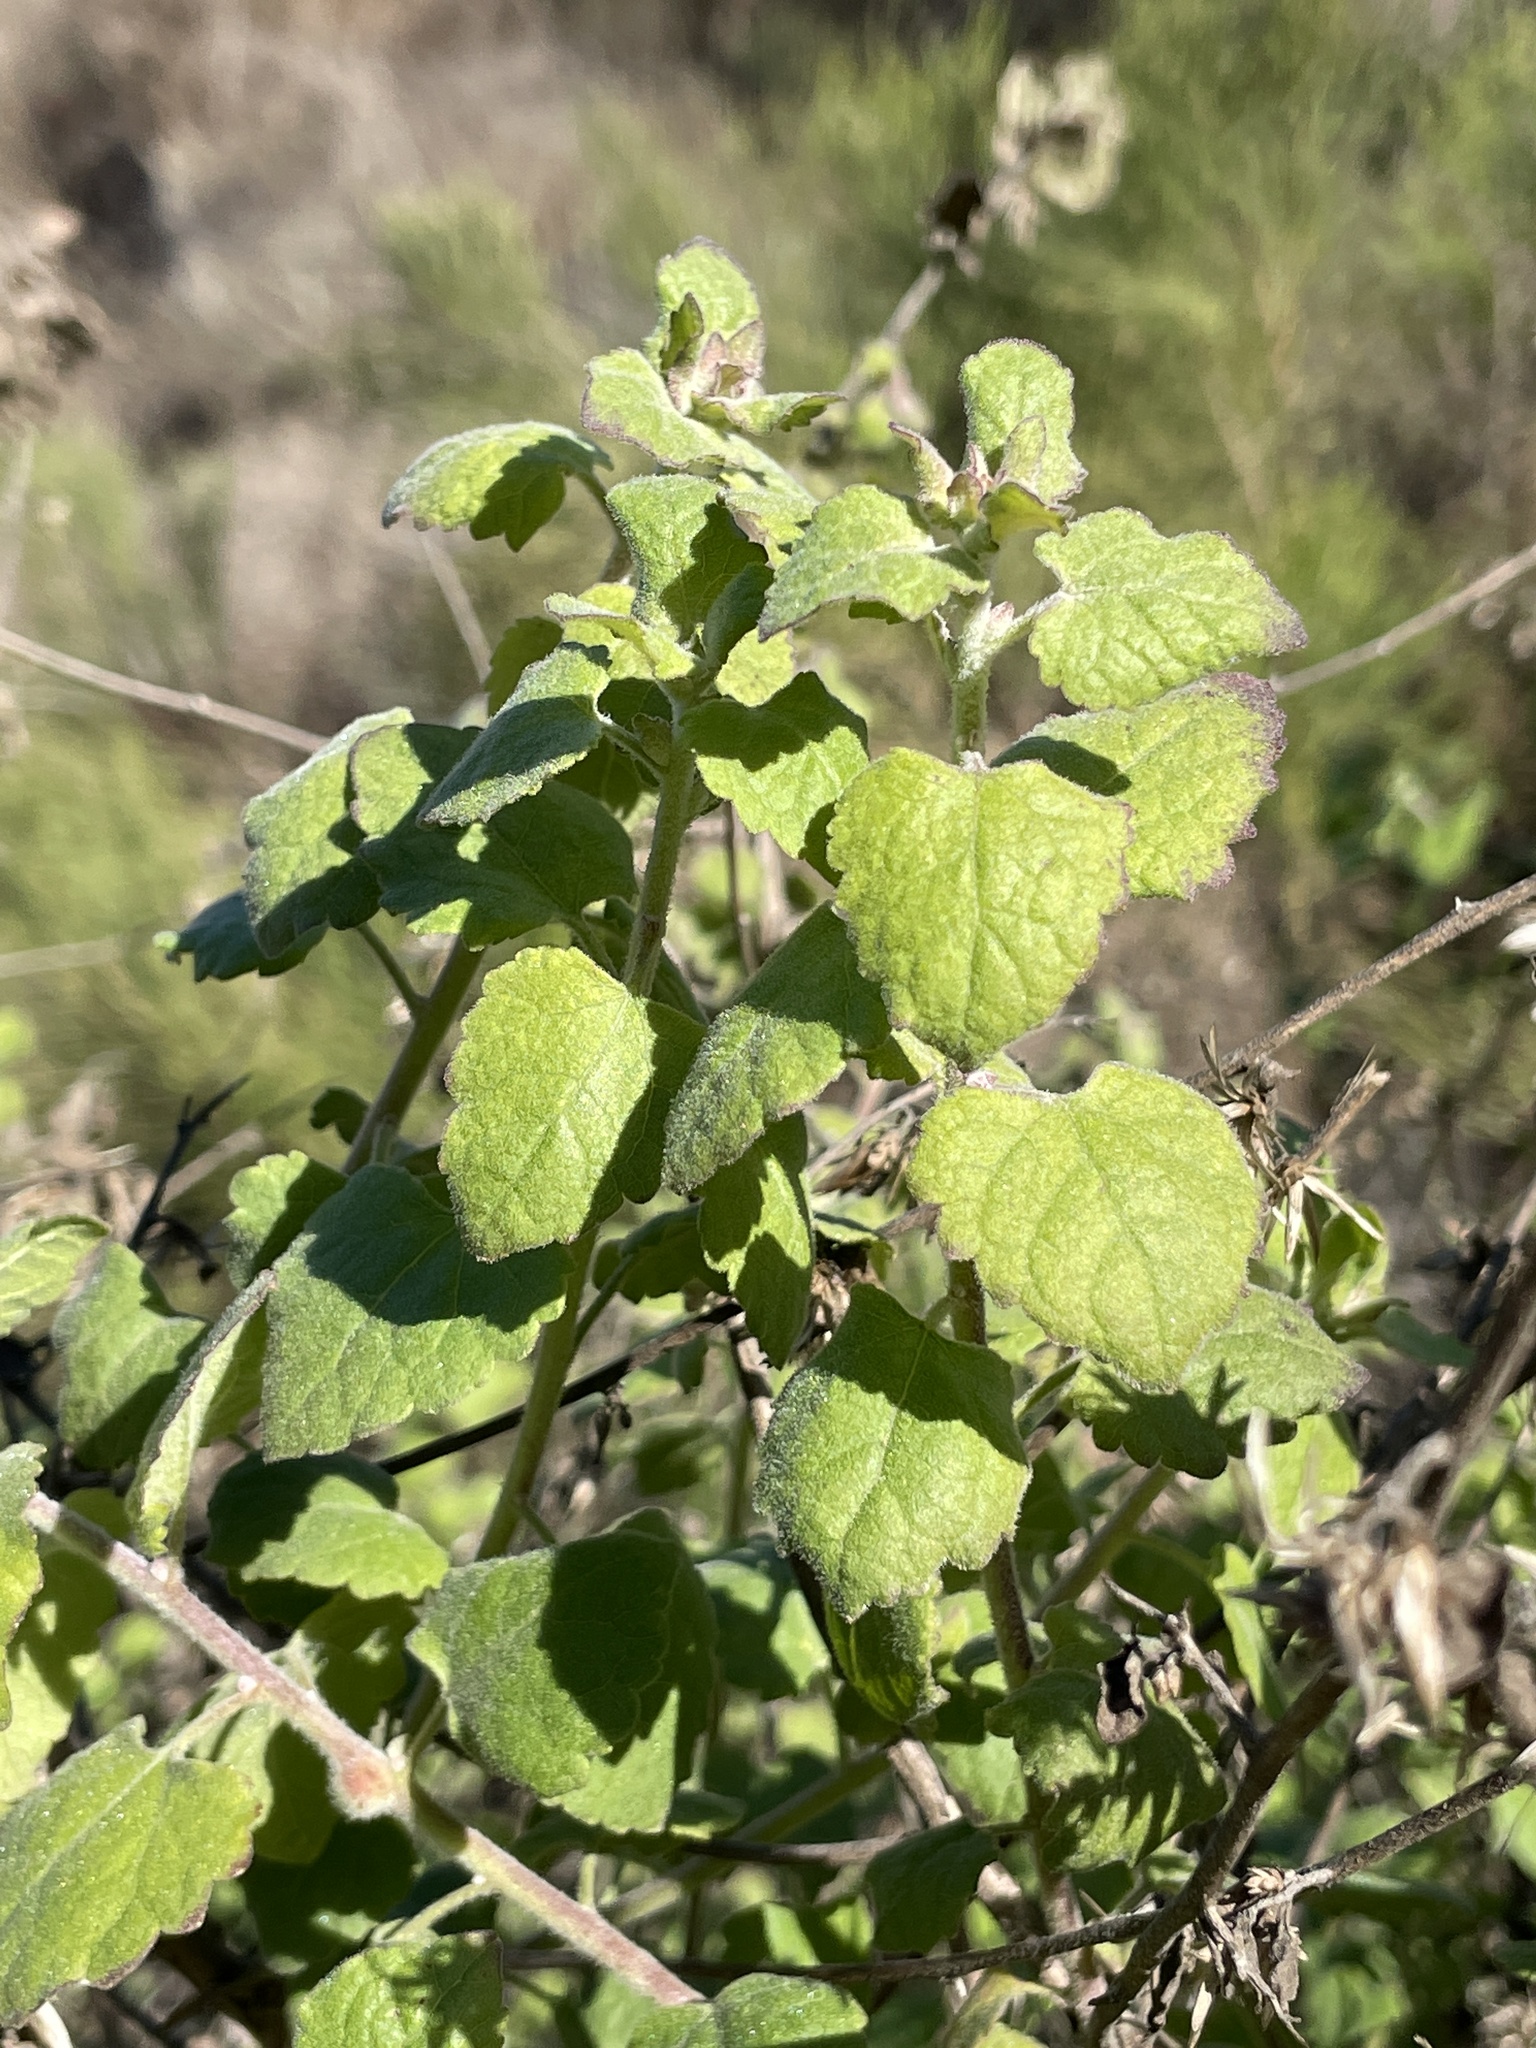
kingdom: Plantae
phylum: Tracheophyta
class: Magnoliopsida
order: Asterales
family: Asteraceae
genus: Brickellia
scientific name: Brickellia californica
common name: California brickellbush
